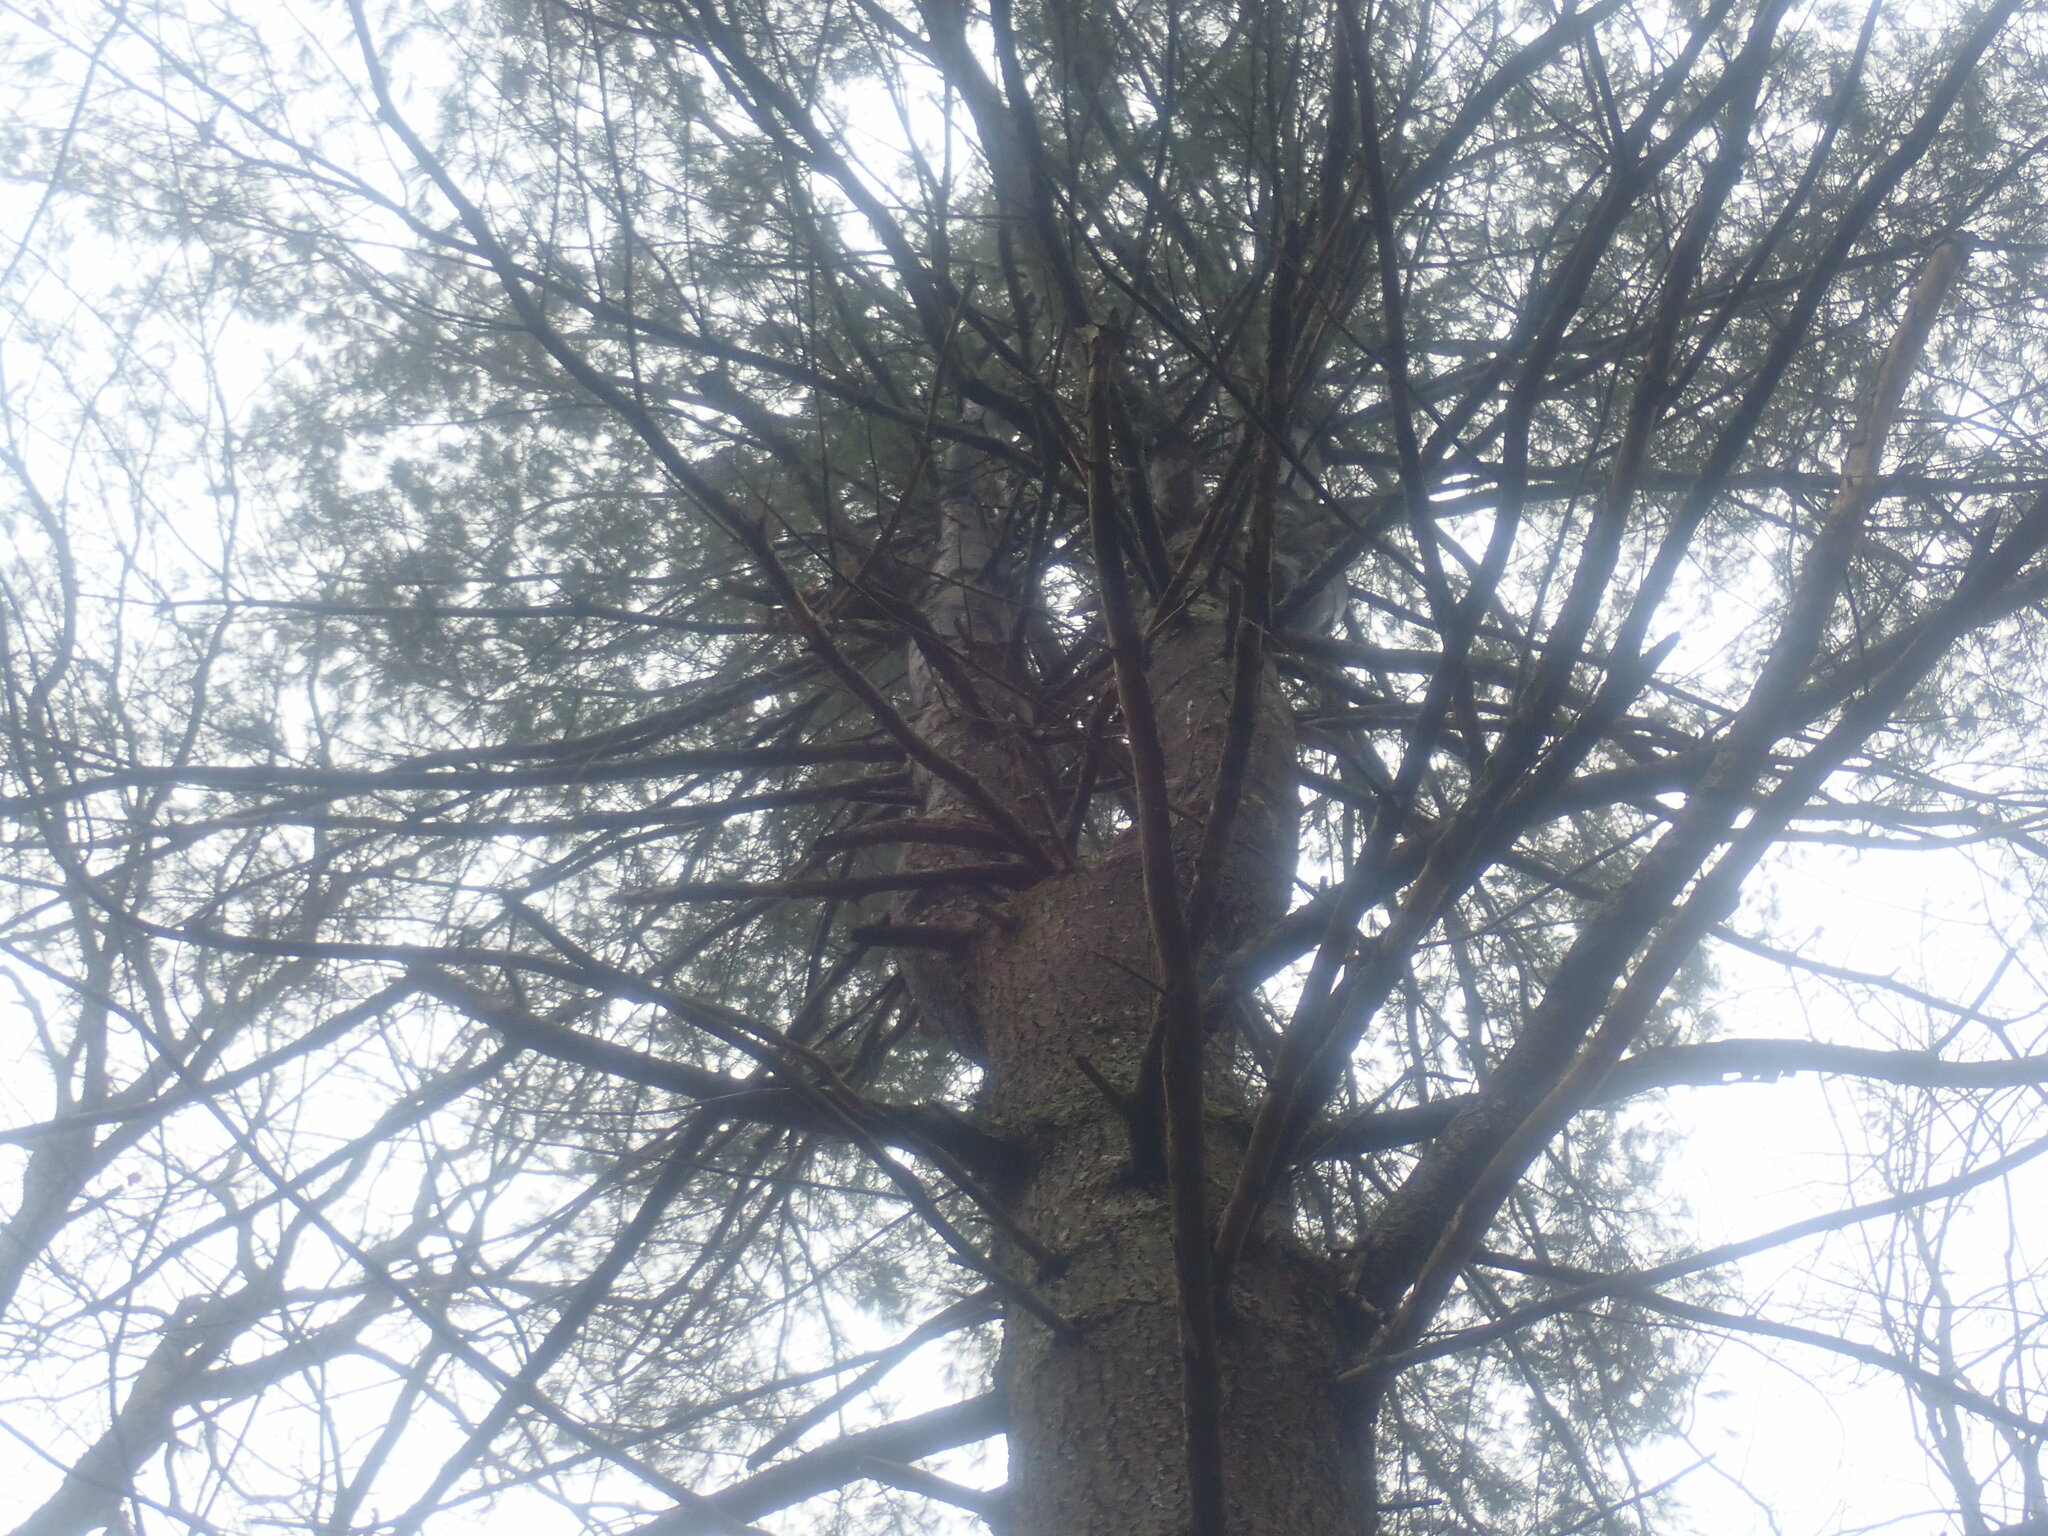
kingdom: Plantae
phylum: Tracheophyta
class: Pinopsida
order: Pinales
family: Pinaceae
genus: Pinus
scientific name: Pinus strobus
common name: Weymouth pine
